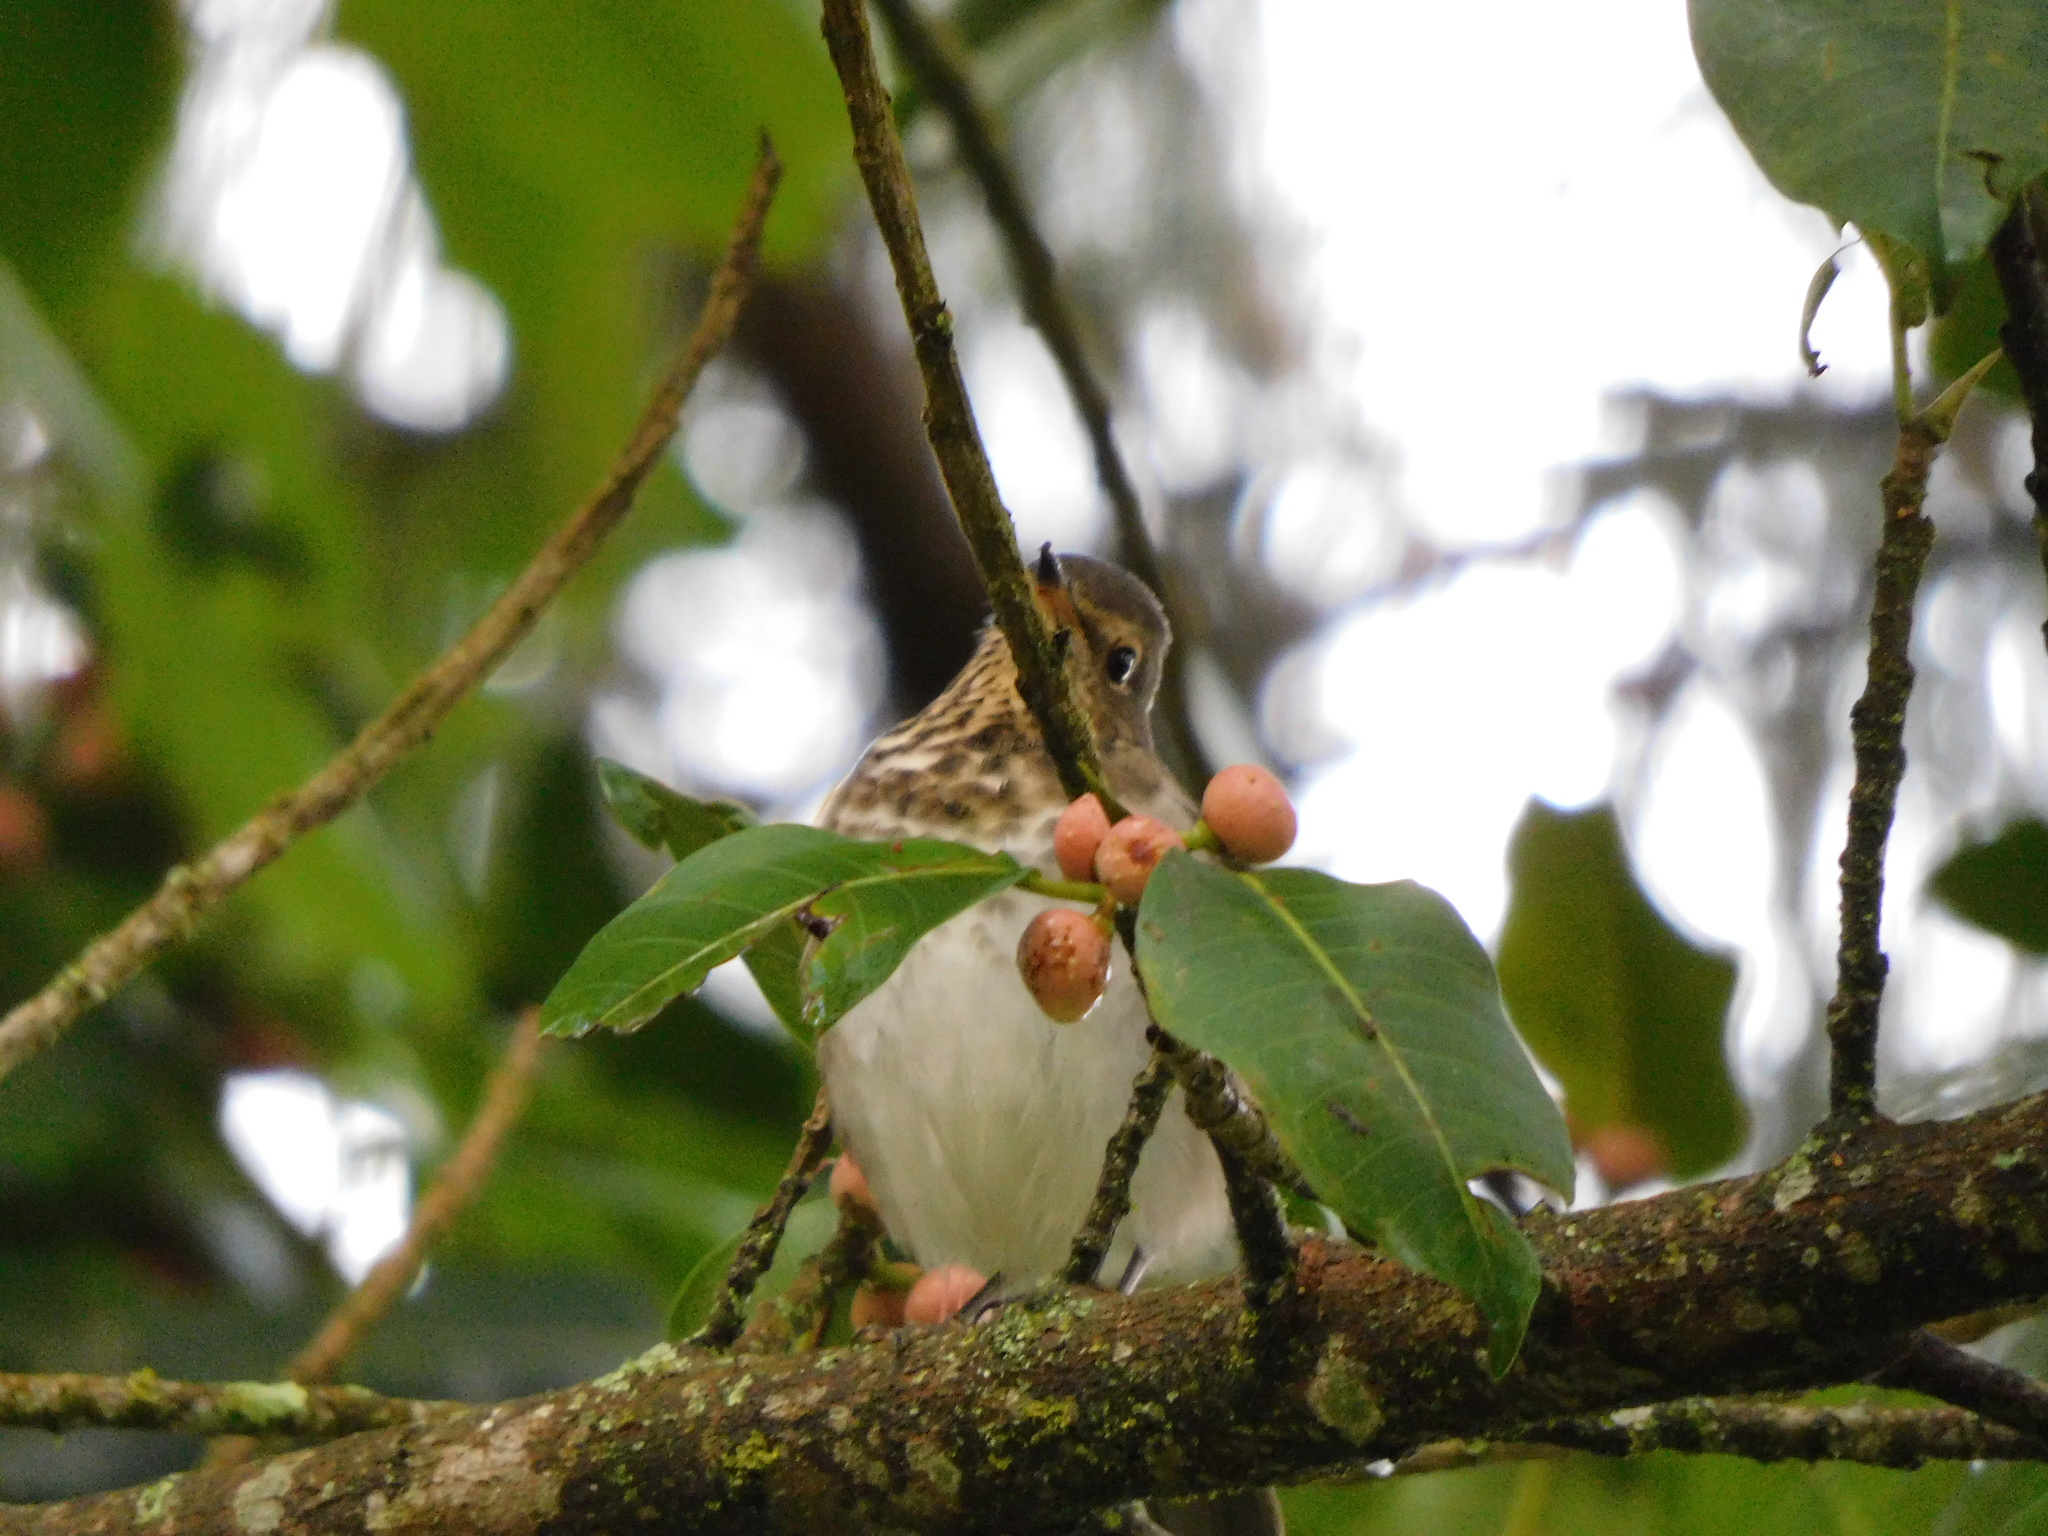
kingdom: Animalia
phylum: Chordata
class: Aves
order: Passeriformes
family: Turdidae
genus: Catharus
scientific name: Catharus ustulatus
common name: Swainson's thrush
